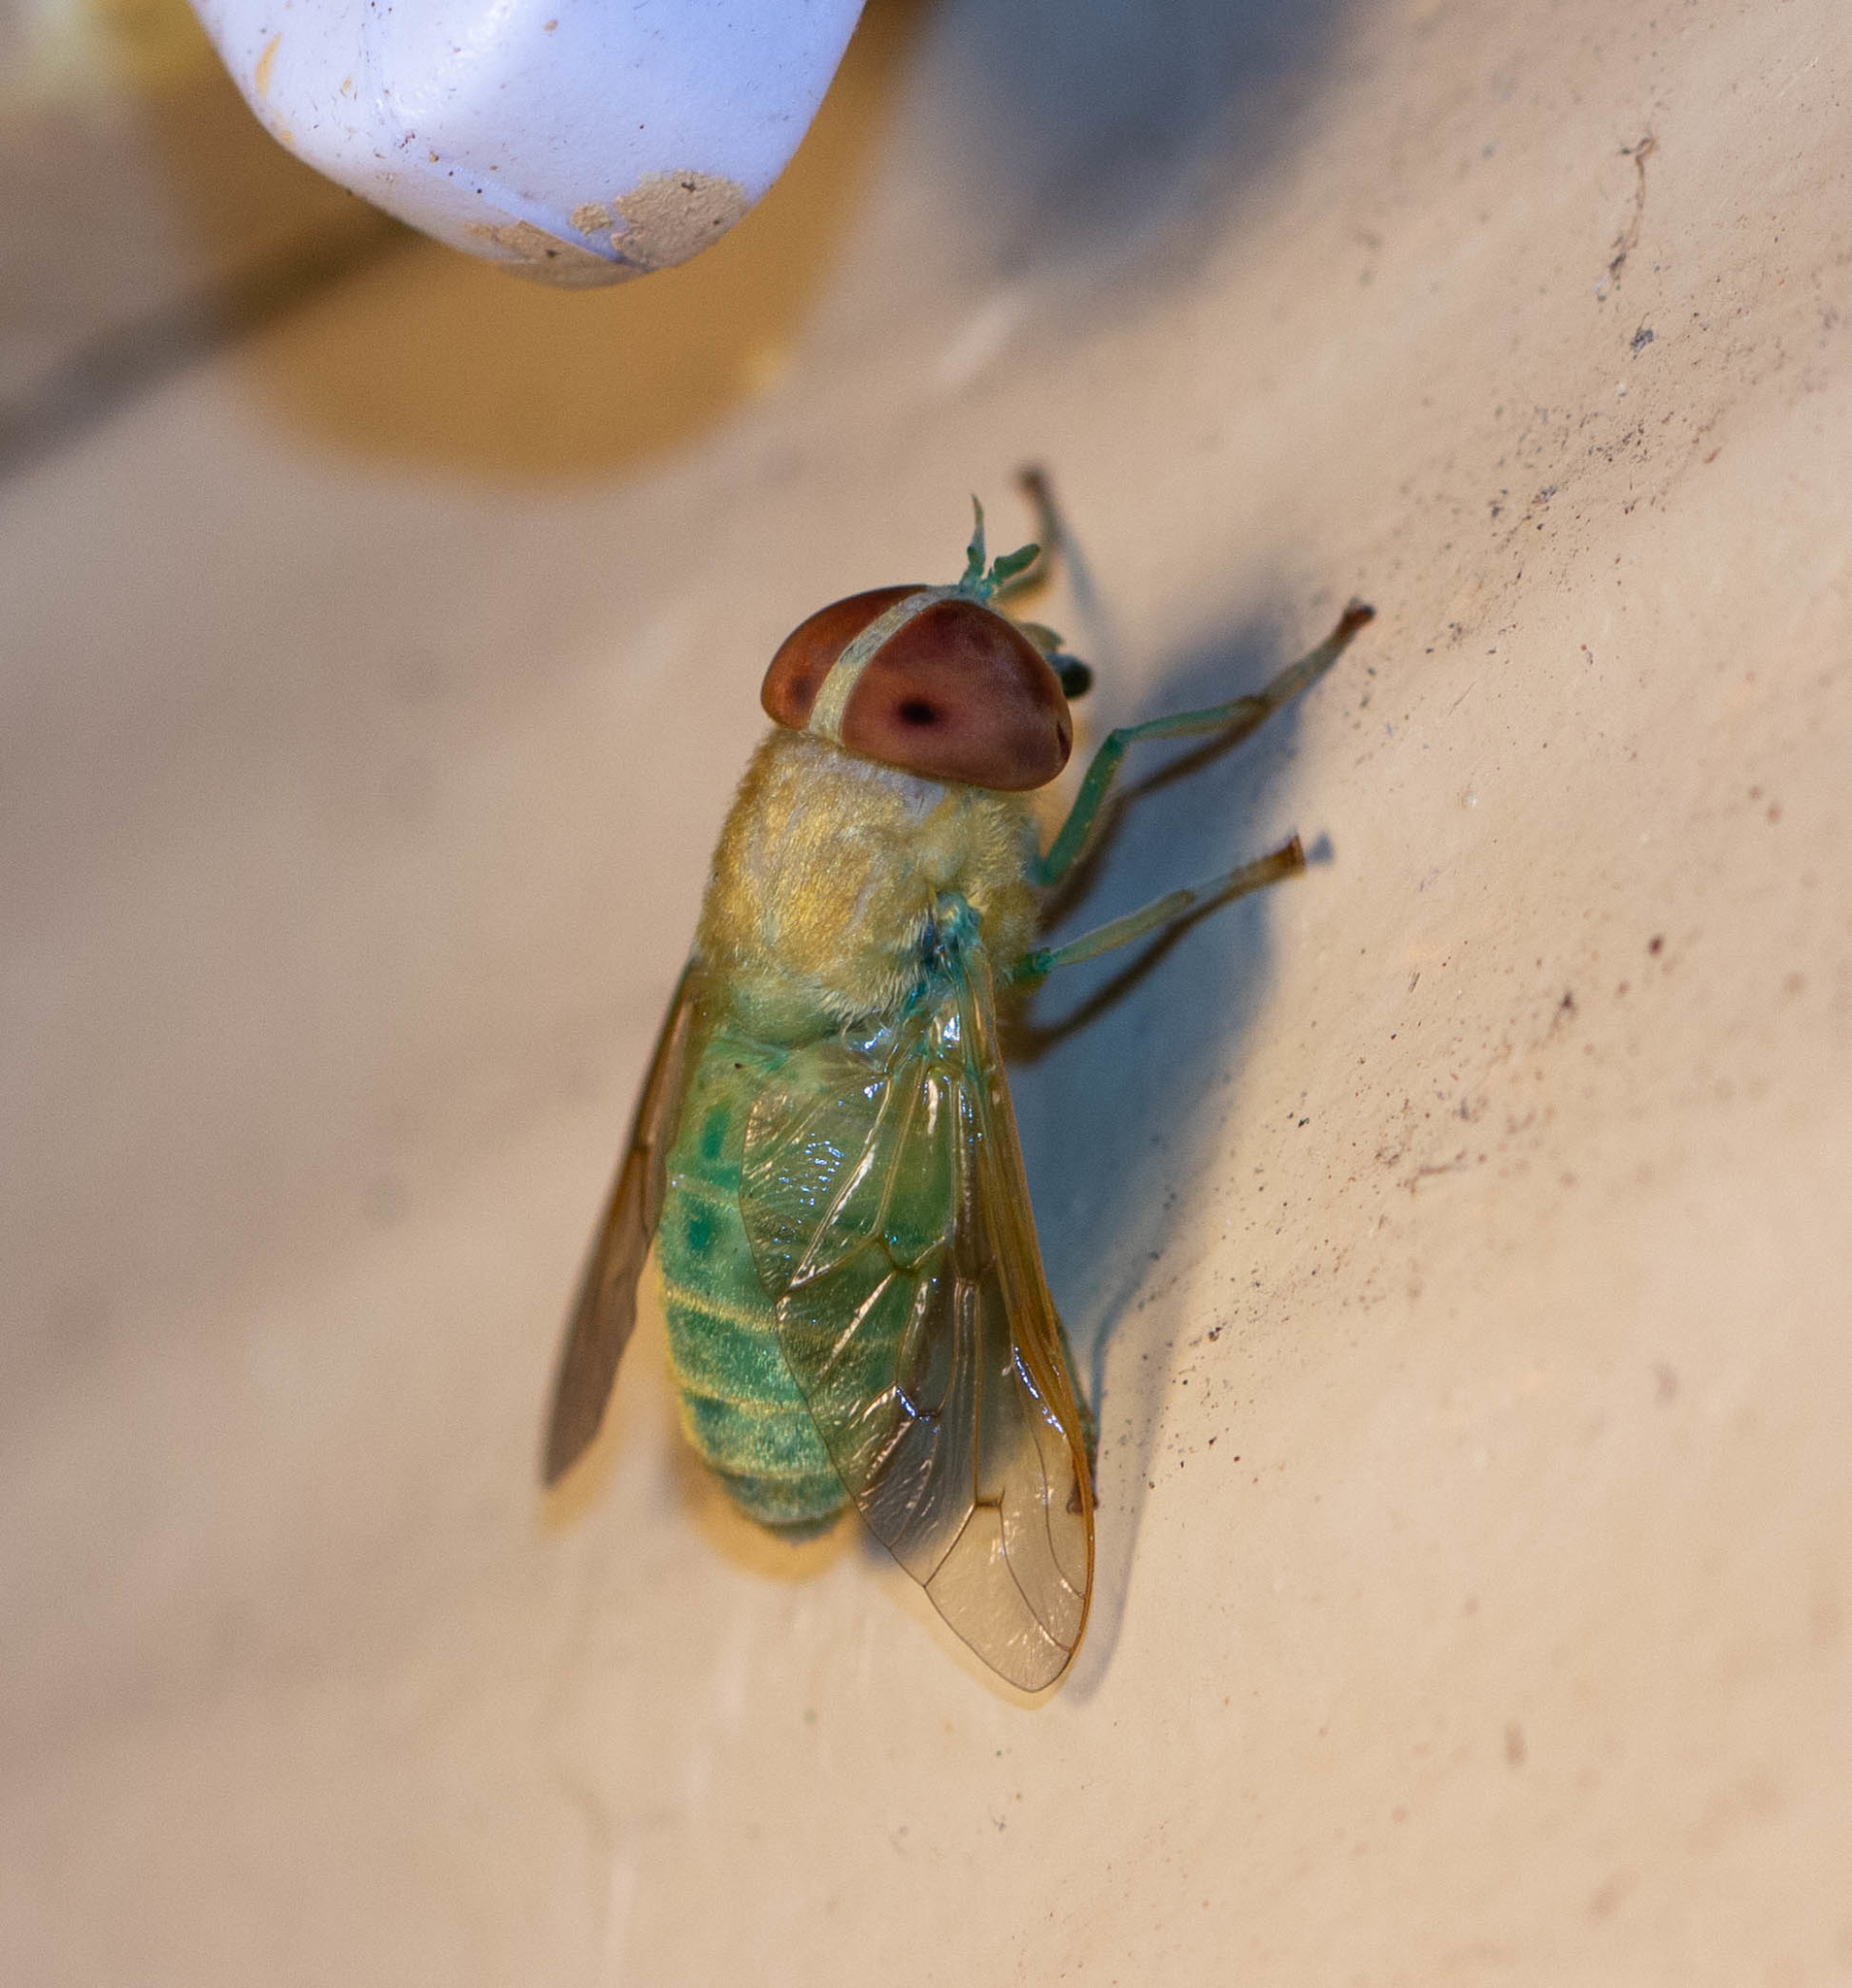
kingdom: Animalia
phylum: Arthropoda
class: Insecta
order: Diptera
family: Tabanidae
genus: Chlorotabanus
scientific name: Chlorotabanus crepuscularis
